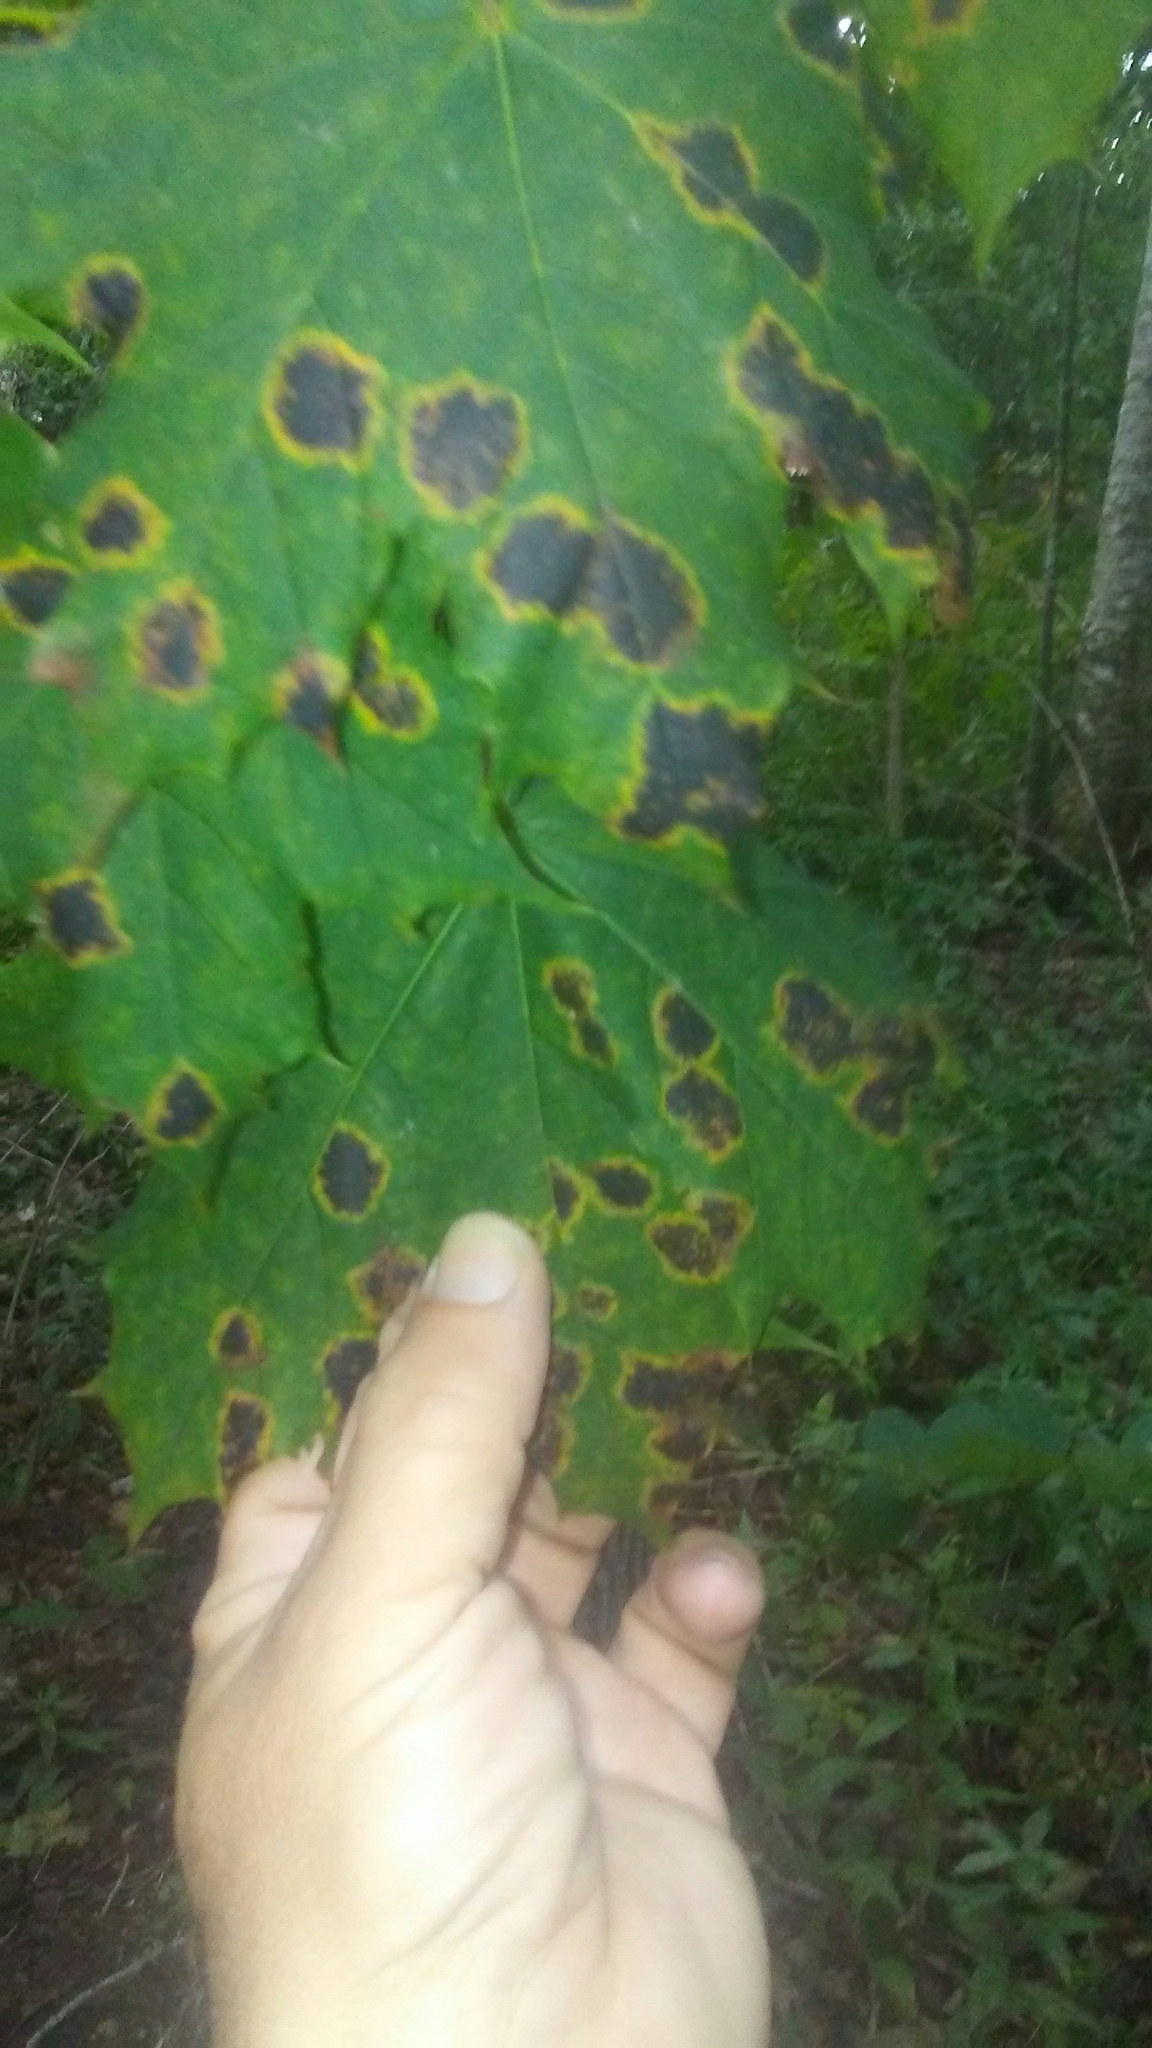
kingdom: Fungi
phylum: Ascomycota
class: Leotiomycetes
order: Rhytismatales
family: Rhytismataceae
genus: Rhytisma
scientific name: Rhytisma acerinum
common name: European tar spot
